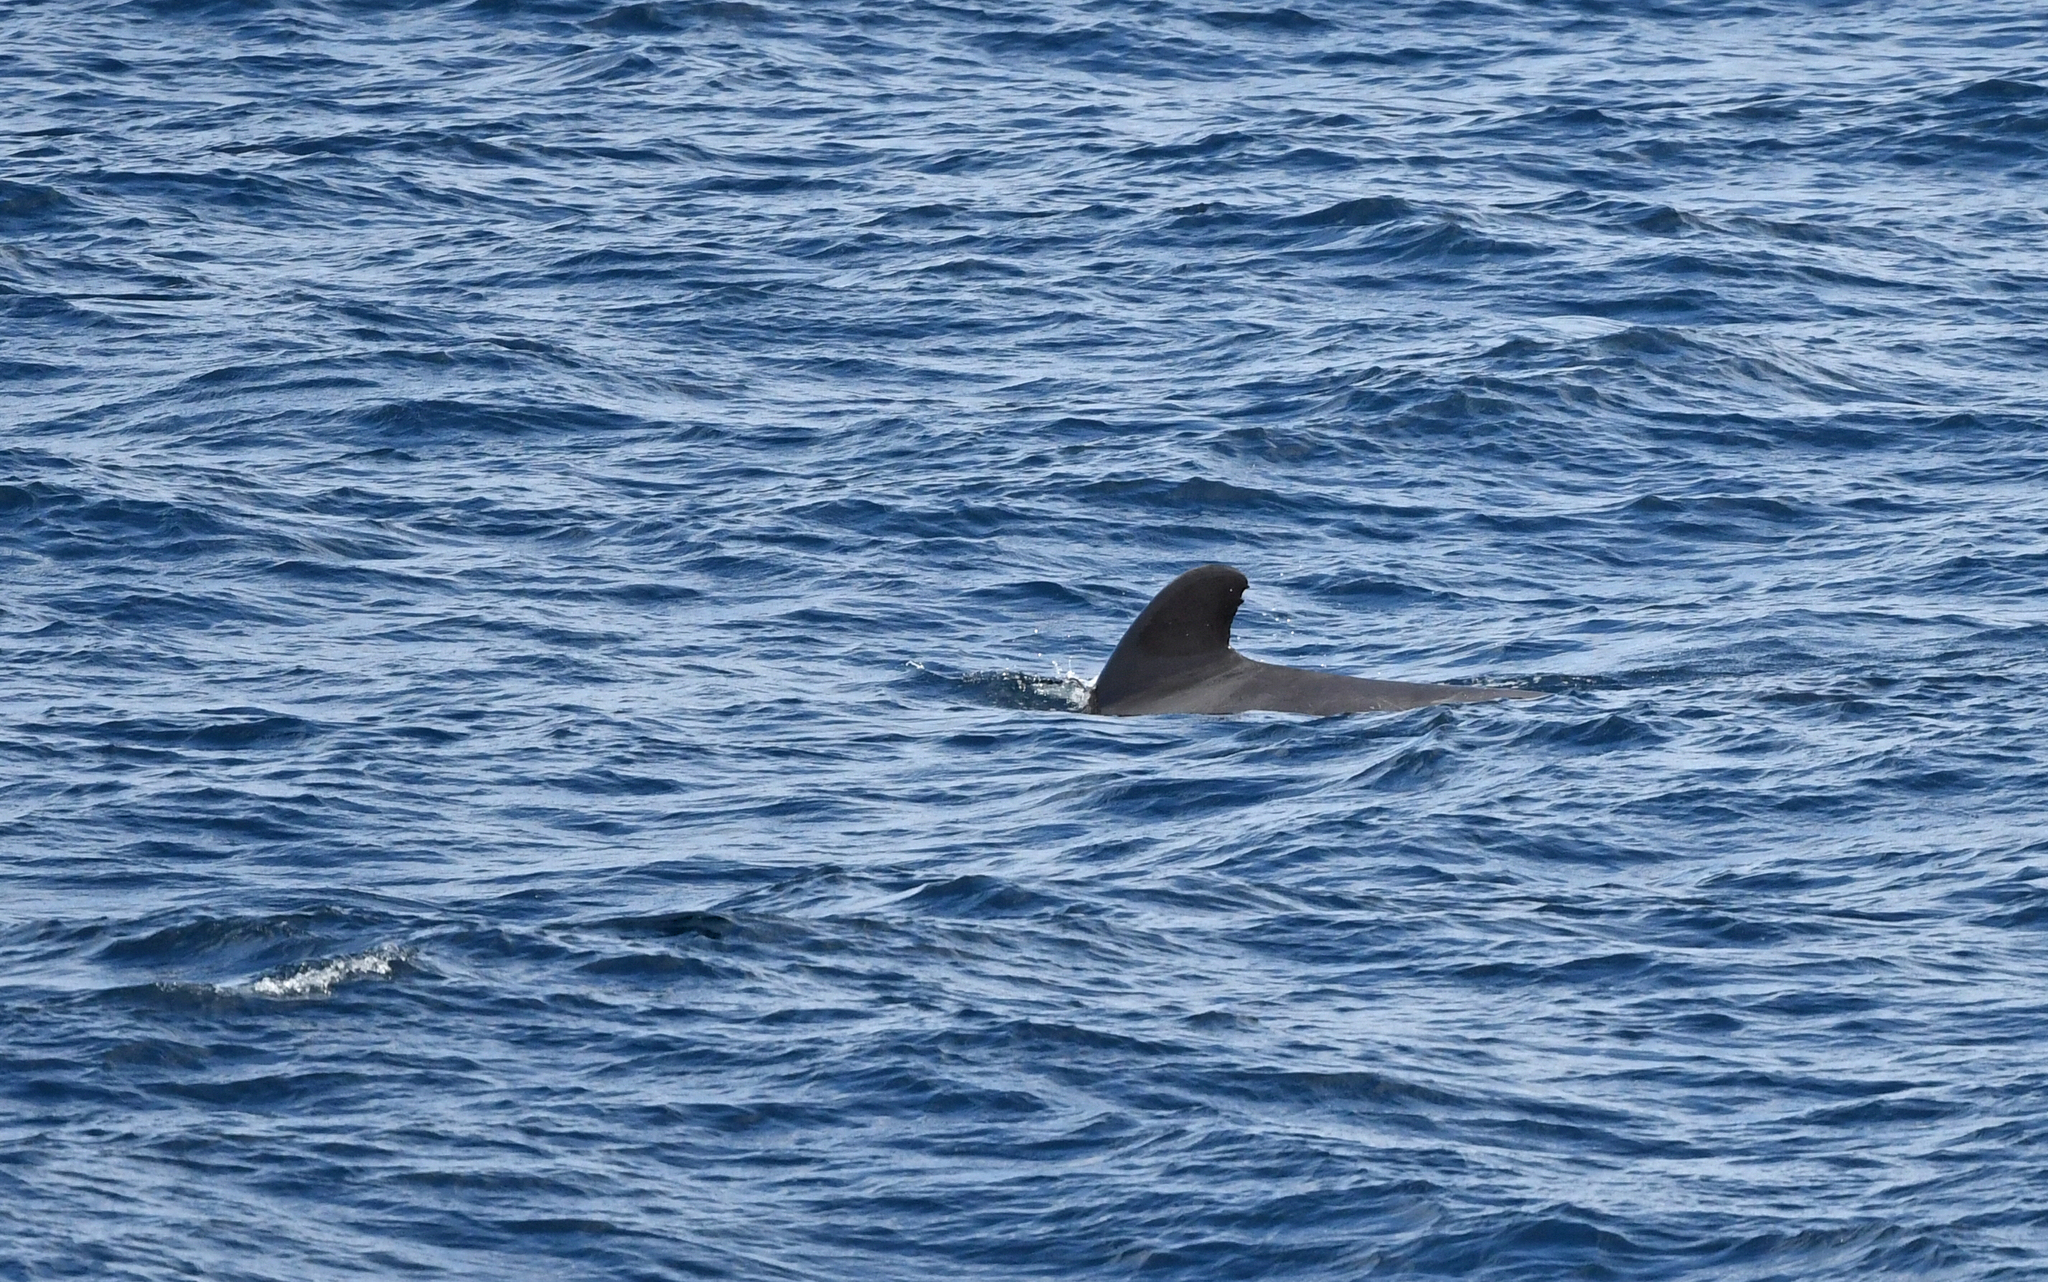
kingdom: Animalia
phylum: Chordata
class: Mammalia
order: Cetacea
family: Delphinidae
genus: Globicephala
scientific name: Globicephala macrorhynchus
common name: Short-finned pilot whale
